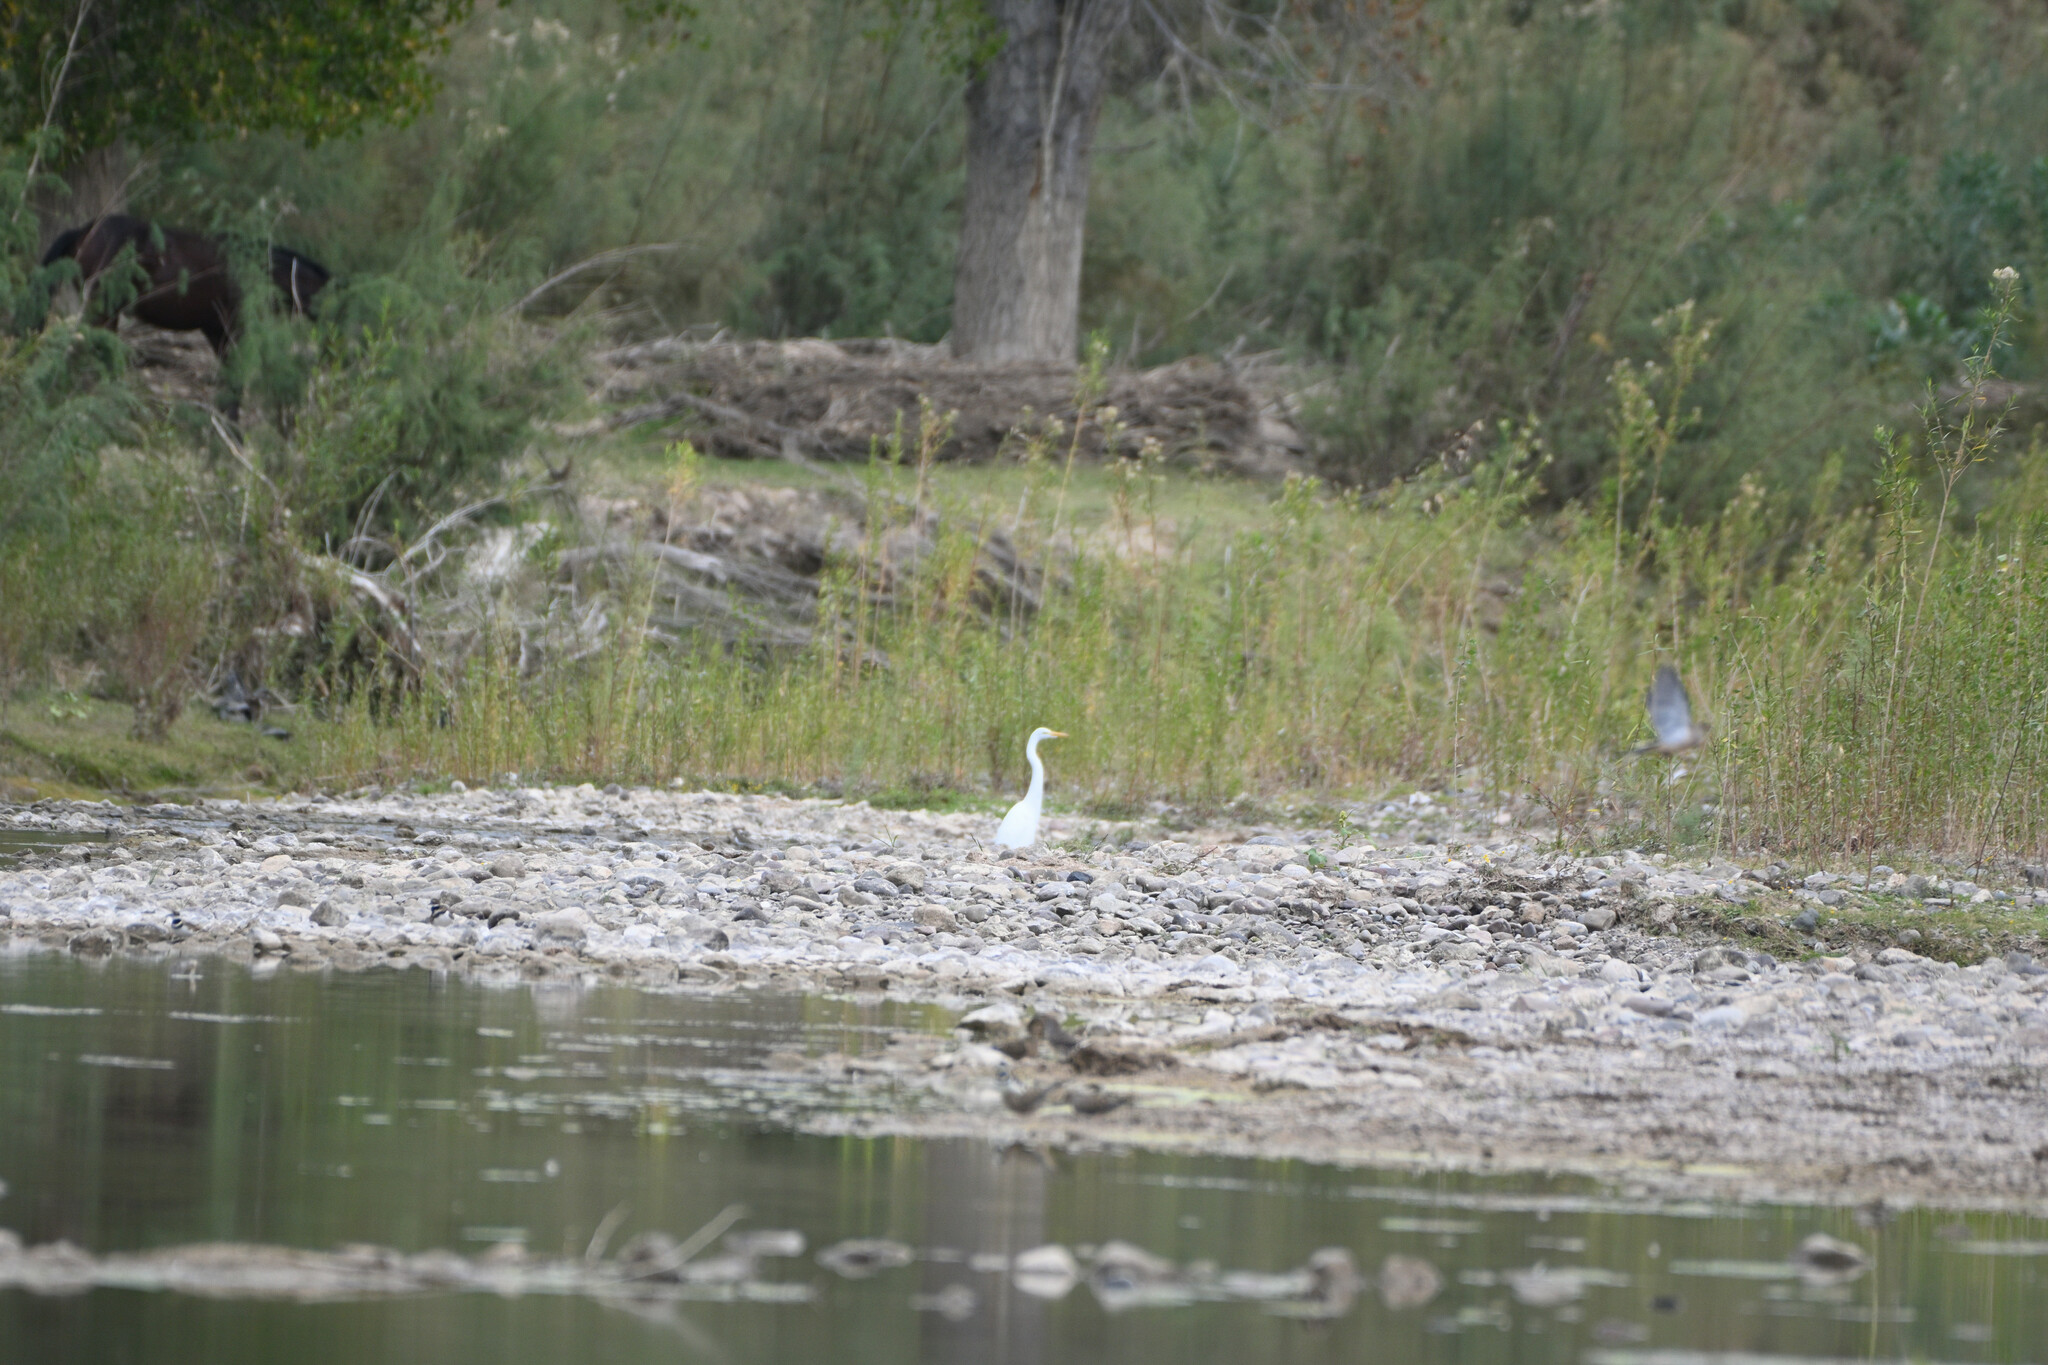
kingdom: Animalia
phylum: Chordata
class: Aves
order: Pelecaniformes
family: Ardeidae
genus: Ardea
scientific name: Ardea alba
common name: Great egret
